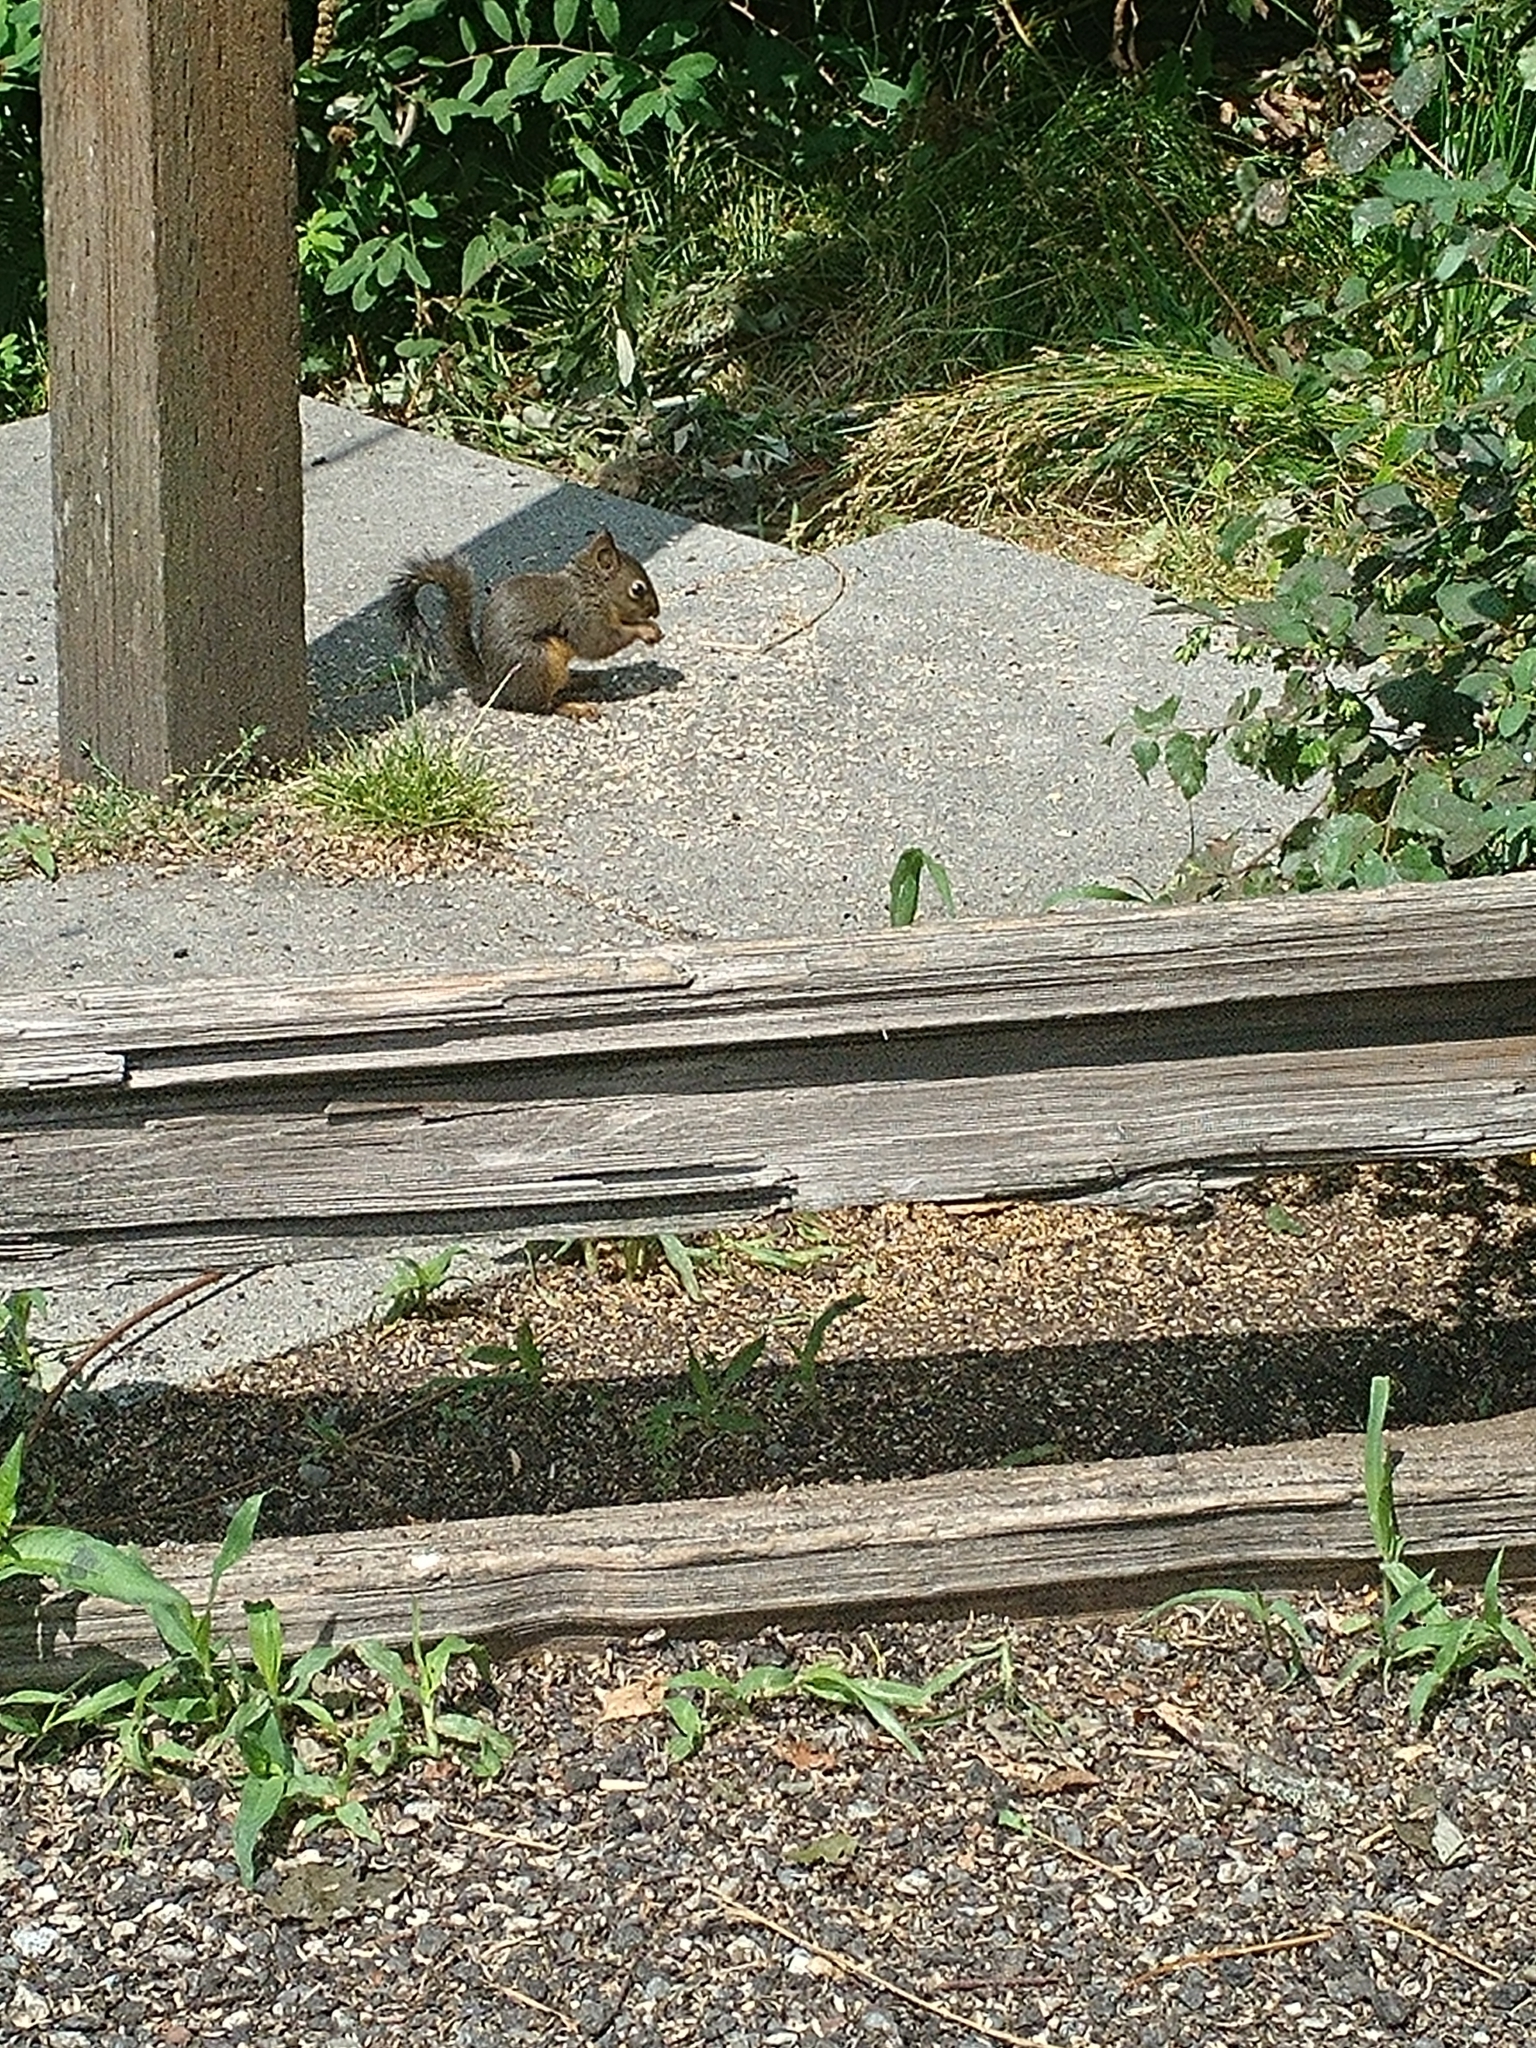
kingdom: Animalia
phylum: Chordata
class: Mammalia
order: Rodentia
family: Sciuridae
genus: Tamiasciurus
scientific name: Tamiasciurus douglasii
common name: Douglas's squirrel
